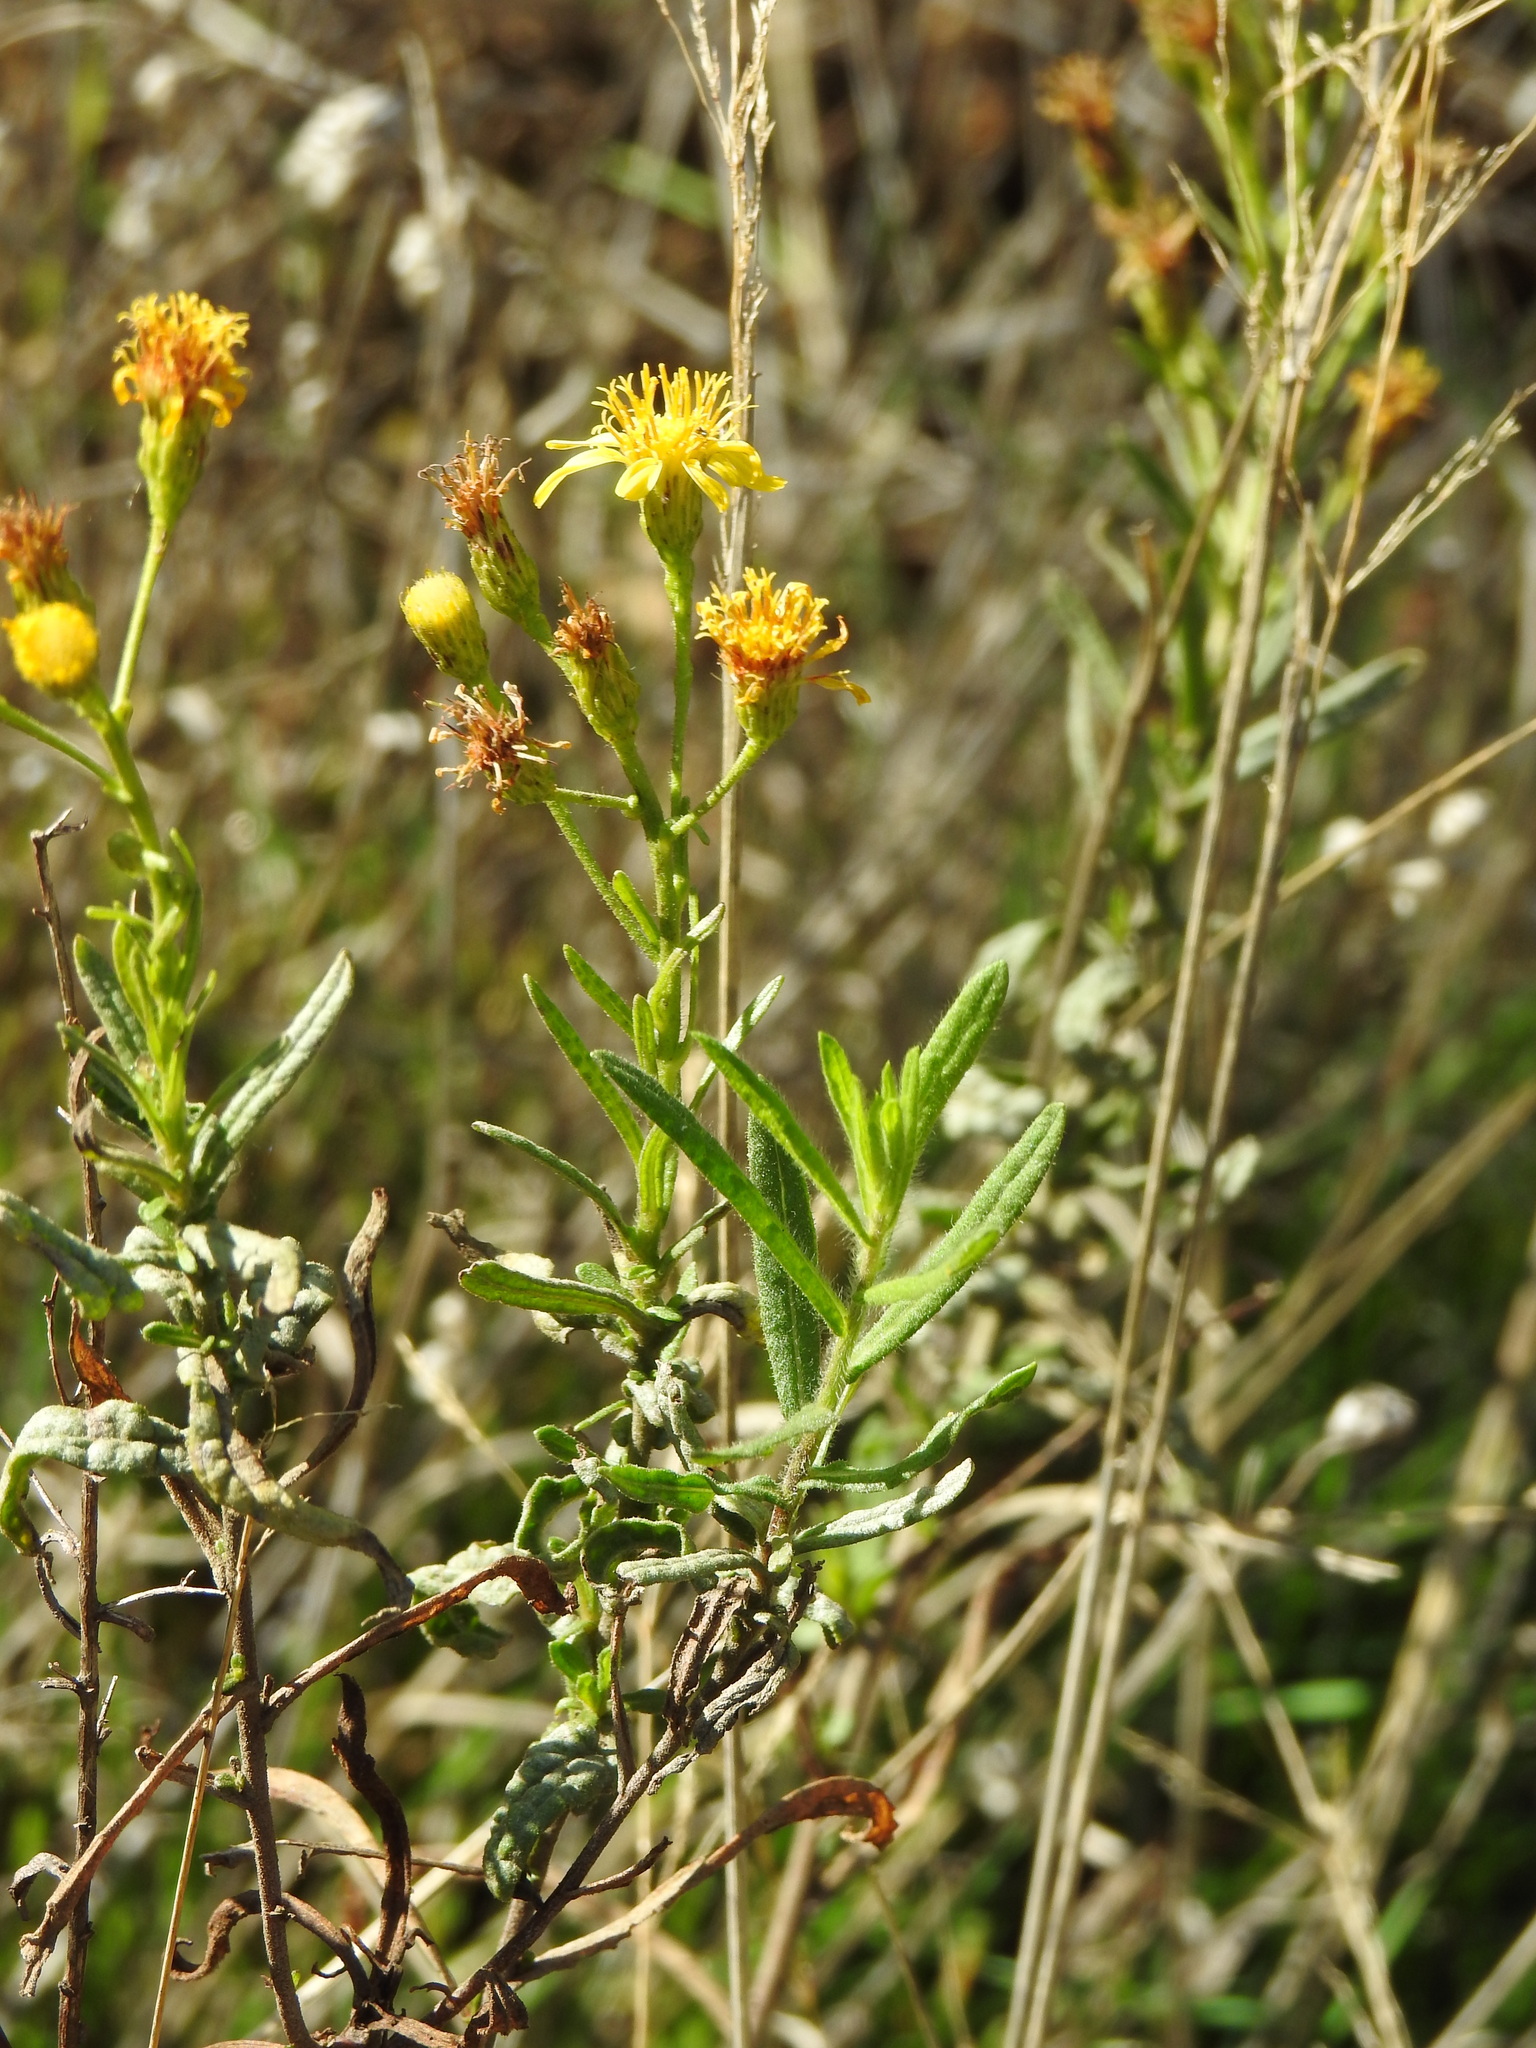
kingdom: Plantae
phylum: Tracheophyta
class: Magnoliopsida
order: Asterales
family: Asteraceae
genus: Dittrichia
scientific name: Dittrichia viscosa
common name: Woody fleabane
